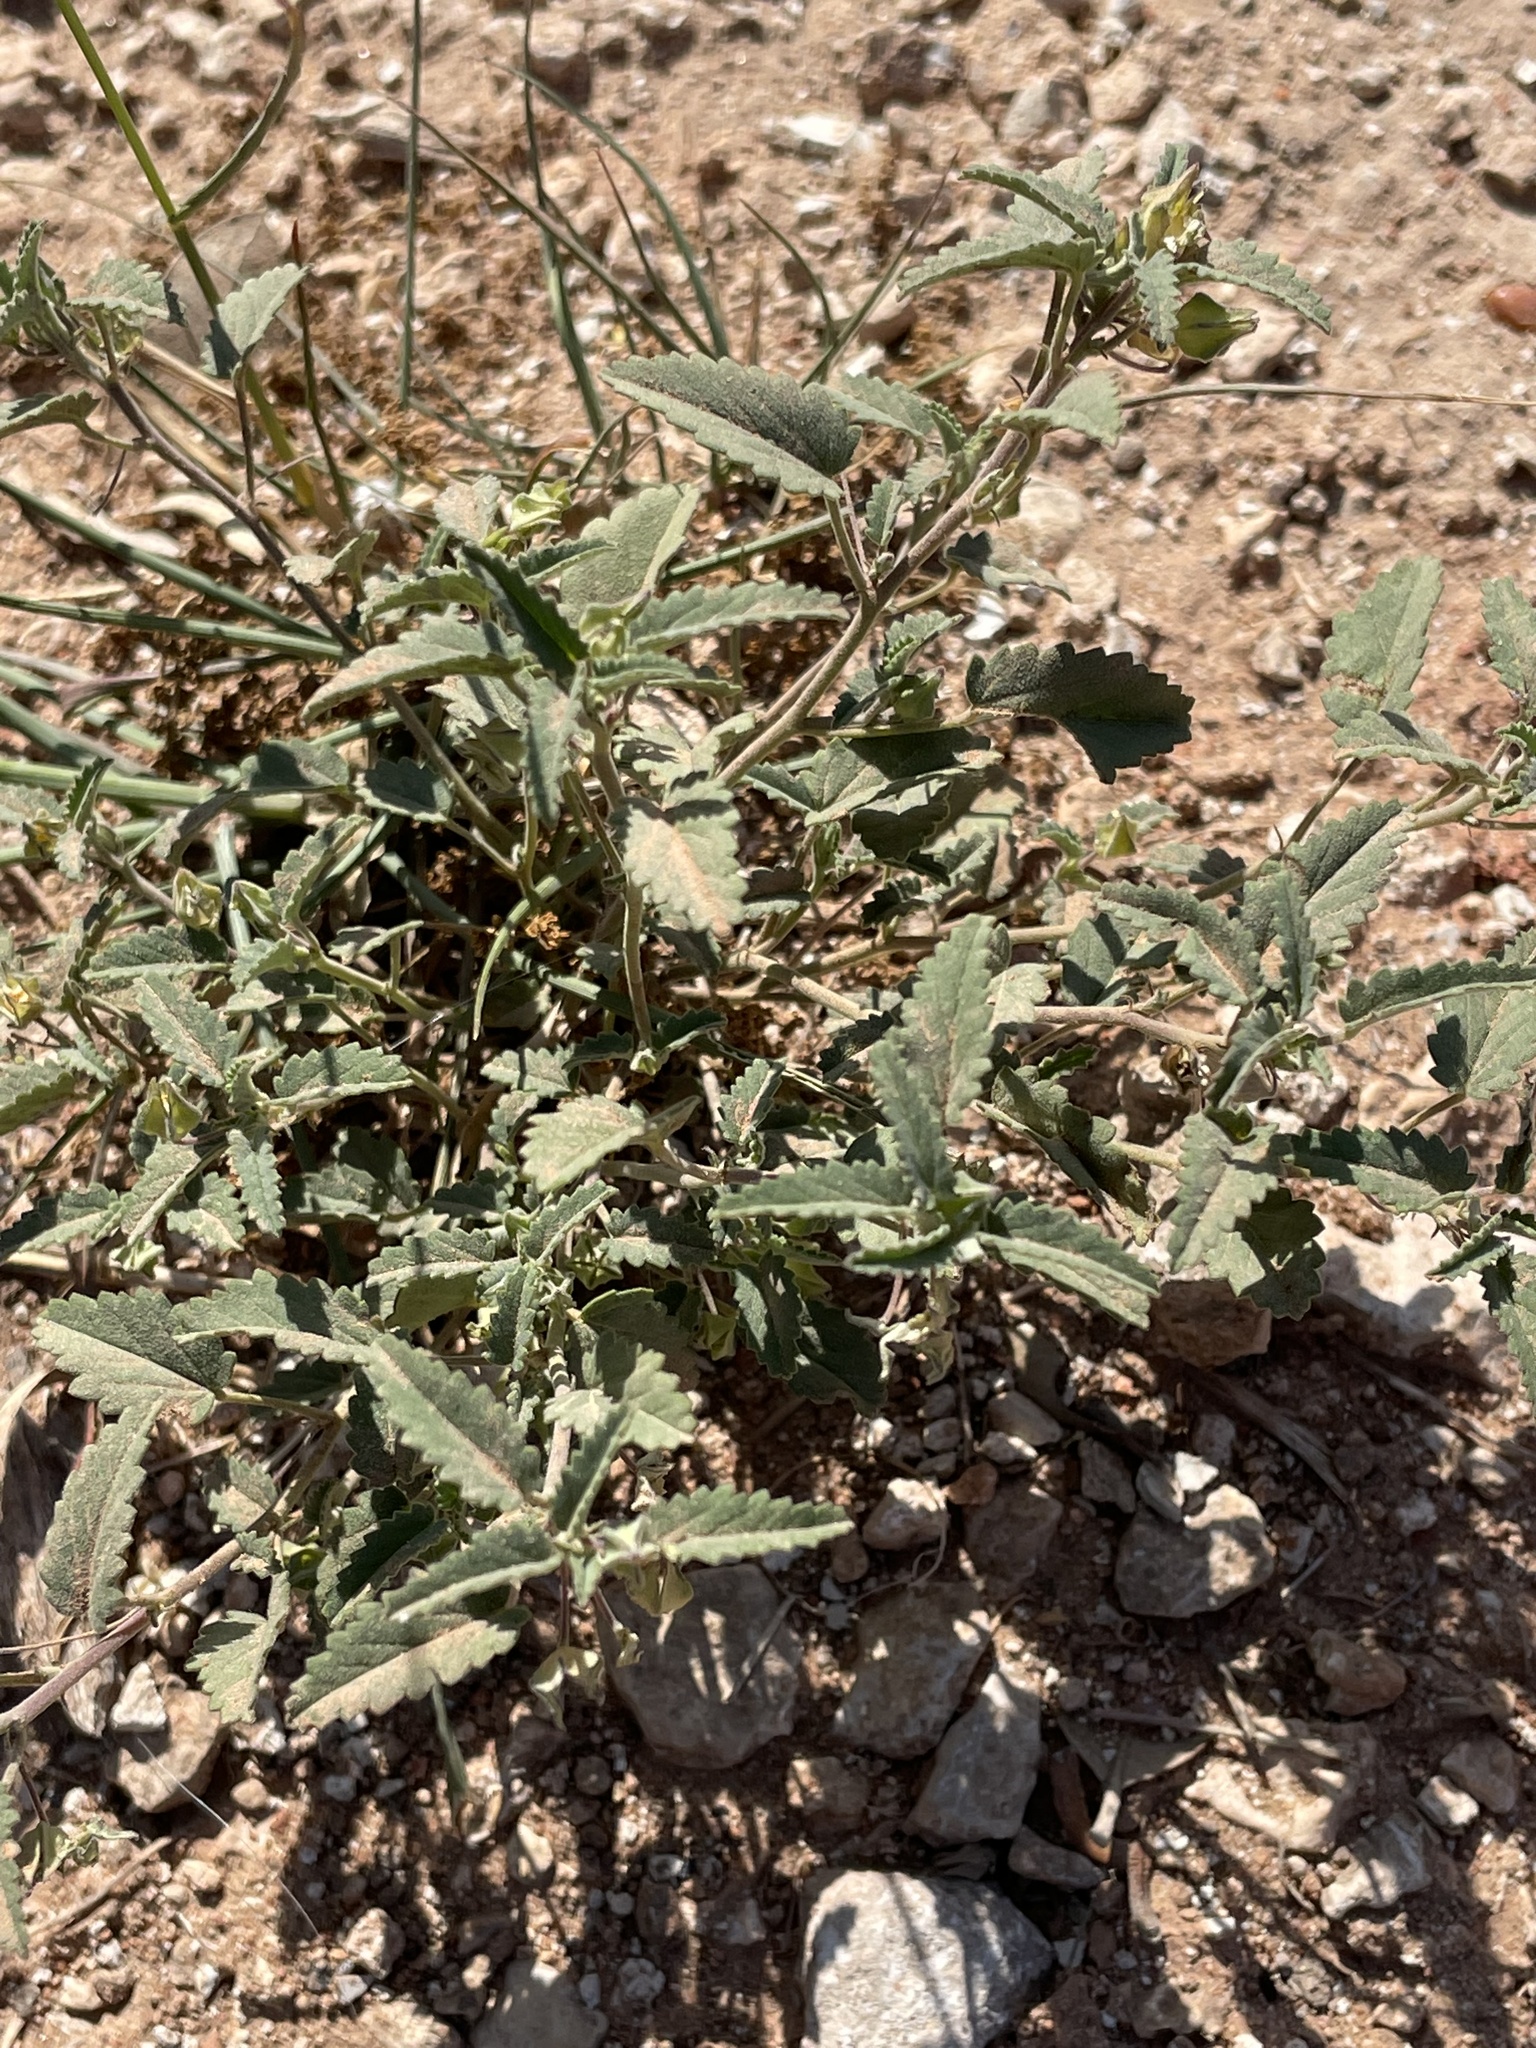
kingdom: Plantae
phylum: Tracheophyta
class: Magnoliopsida
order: Malvales
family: Malvaceae
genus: Sida
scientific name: Sida abutilifolia
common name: Spreading fanpetals
